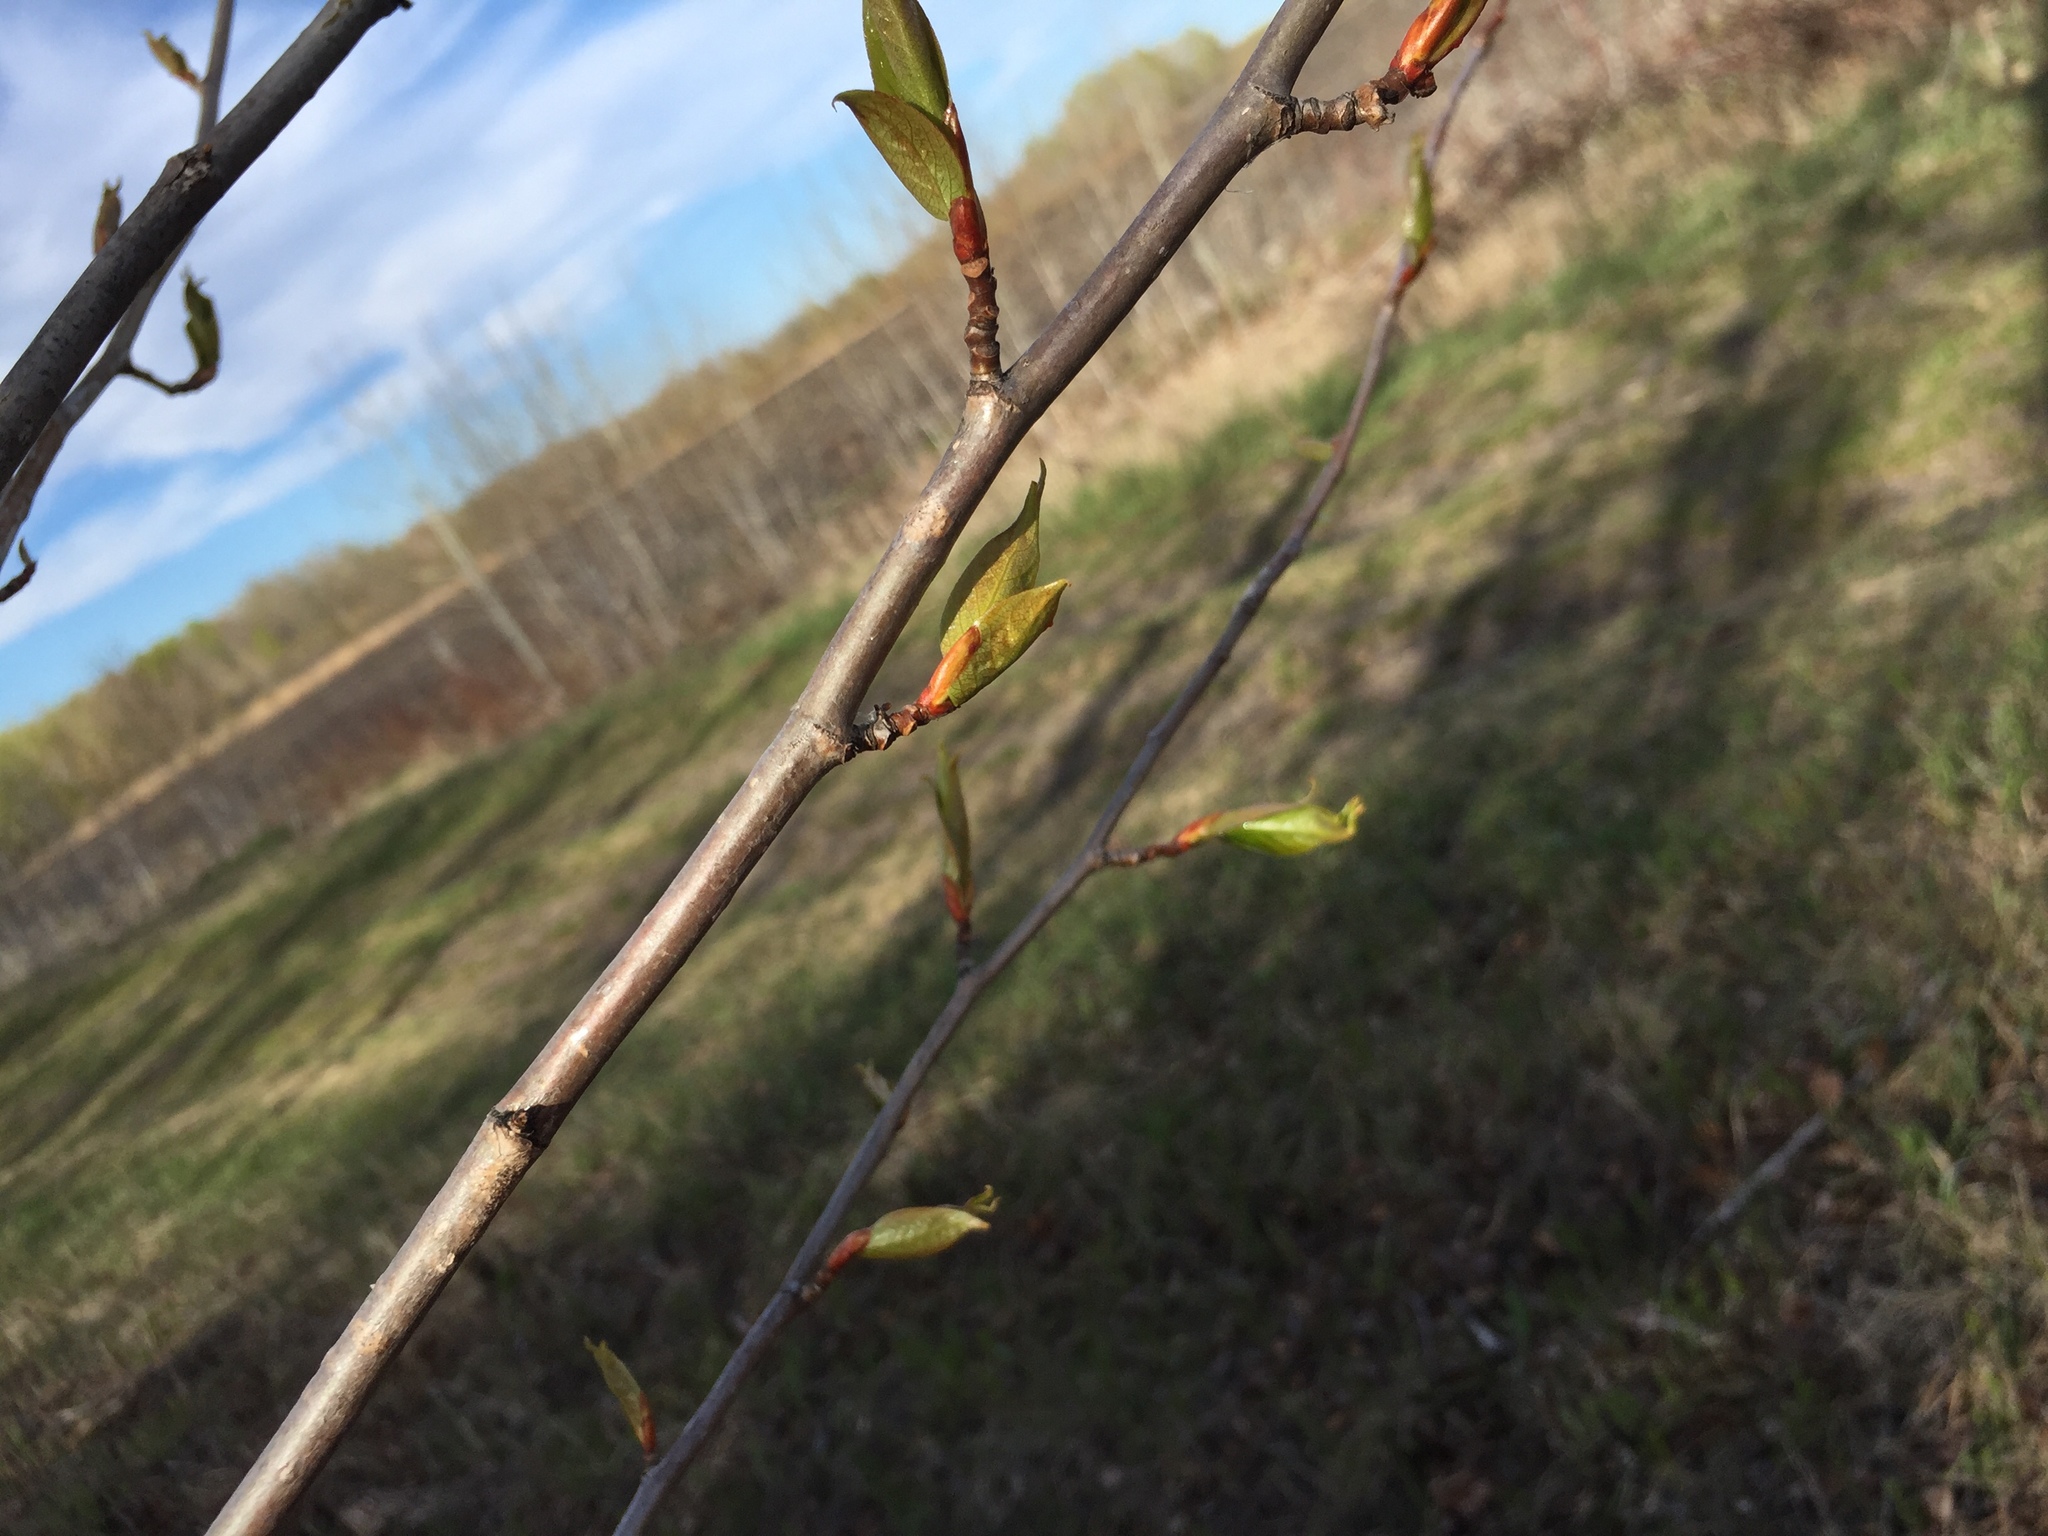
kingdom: Plantae
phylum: Tracheophyta
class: Magnoliopsida
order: Malpighiales
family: Salicaceae
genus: Populus
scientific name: Populus balsamifera
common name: Balsam poplar
